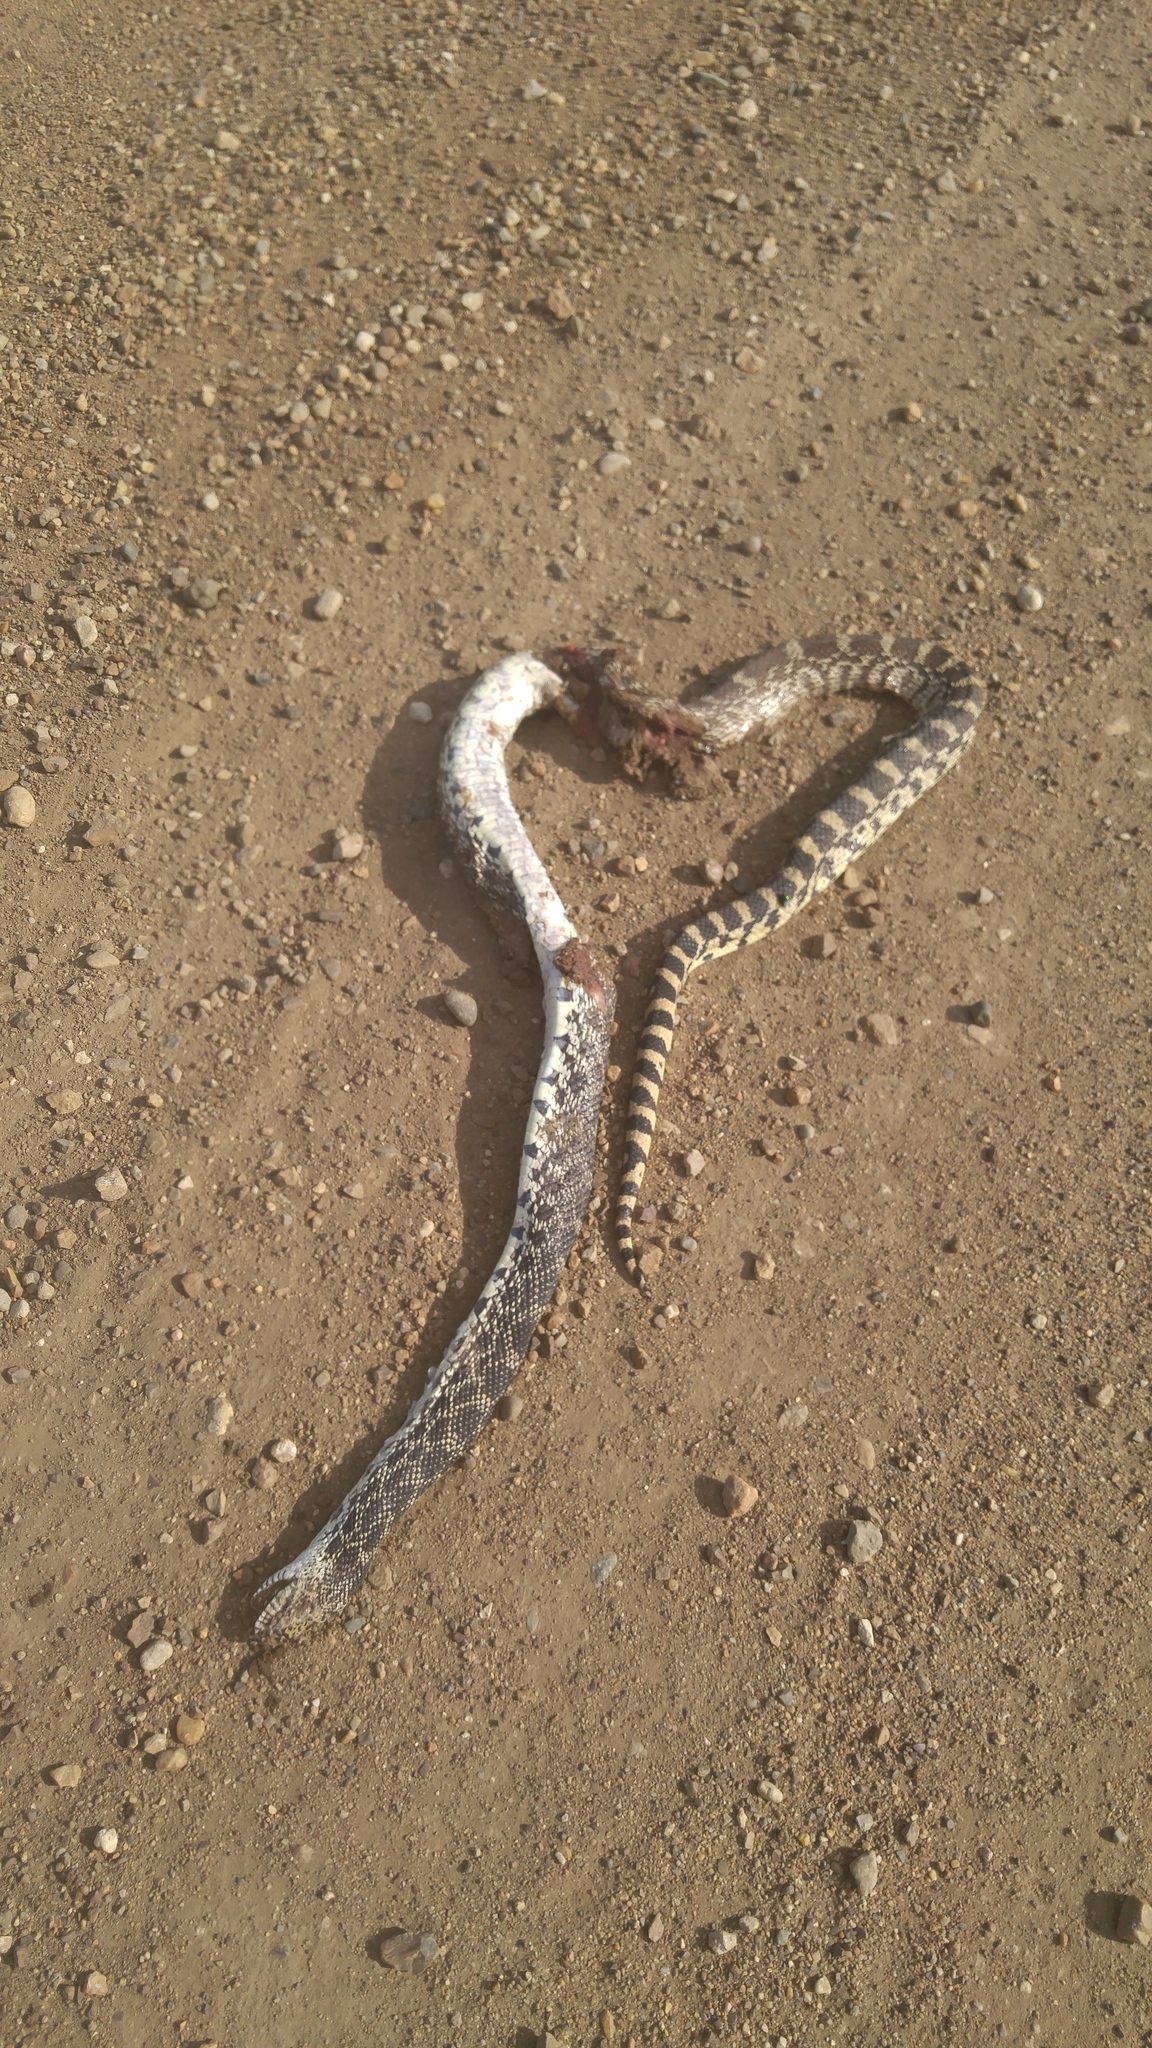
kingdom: Animalia
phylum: Chordata
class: Squamata
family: Colubridae
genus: Pituophis
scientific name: Pituophis catenifer
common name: Gopher snake
